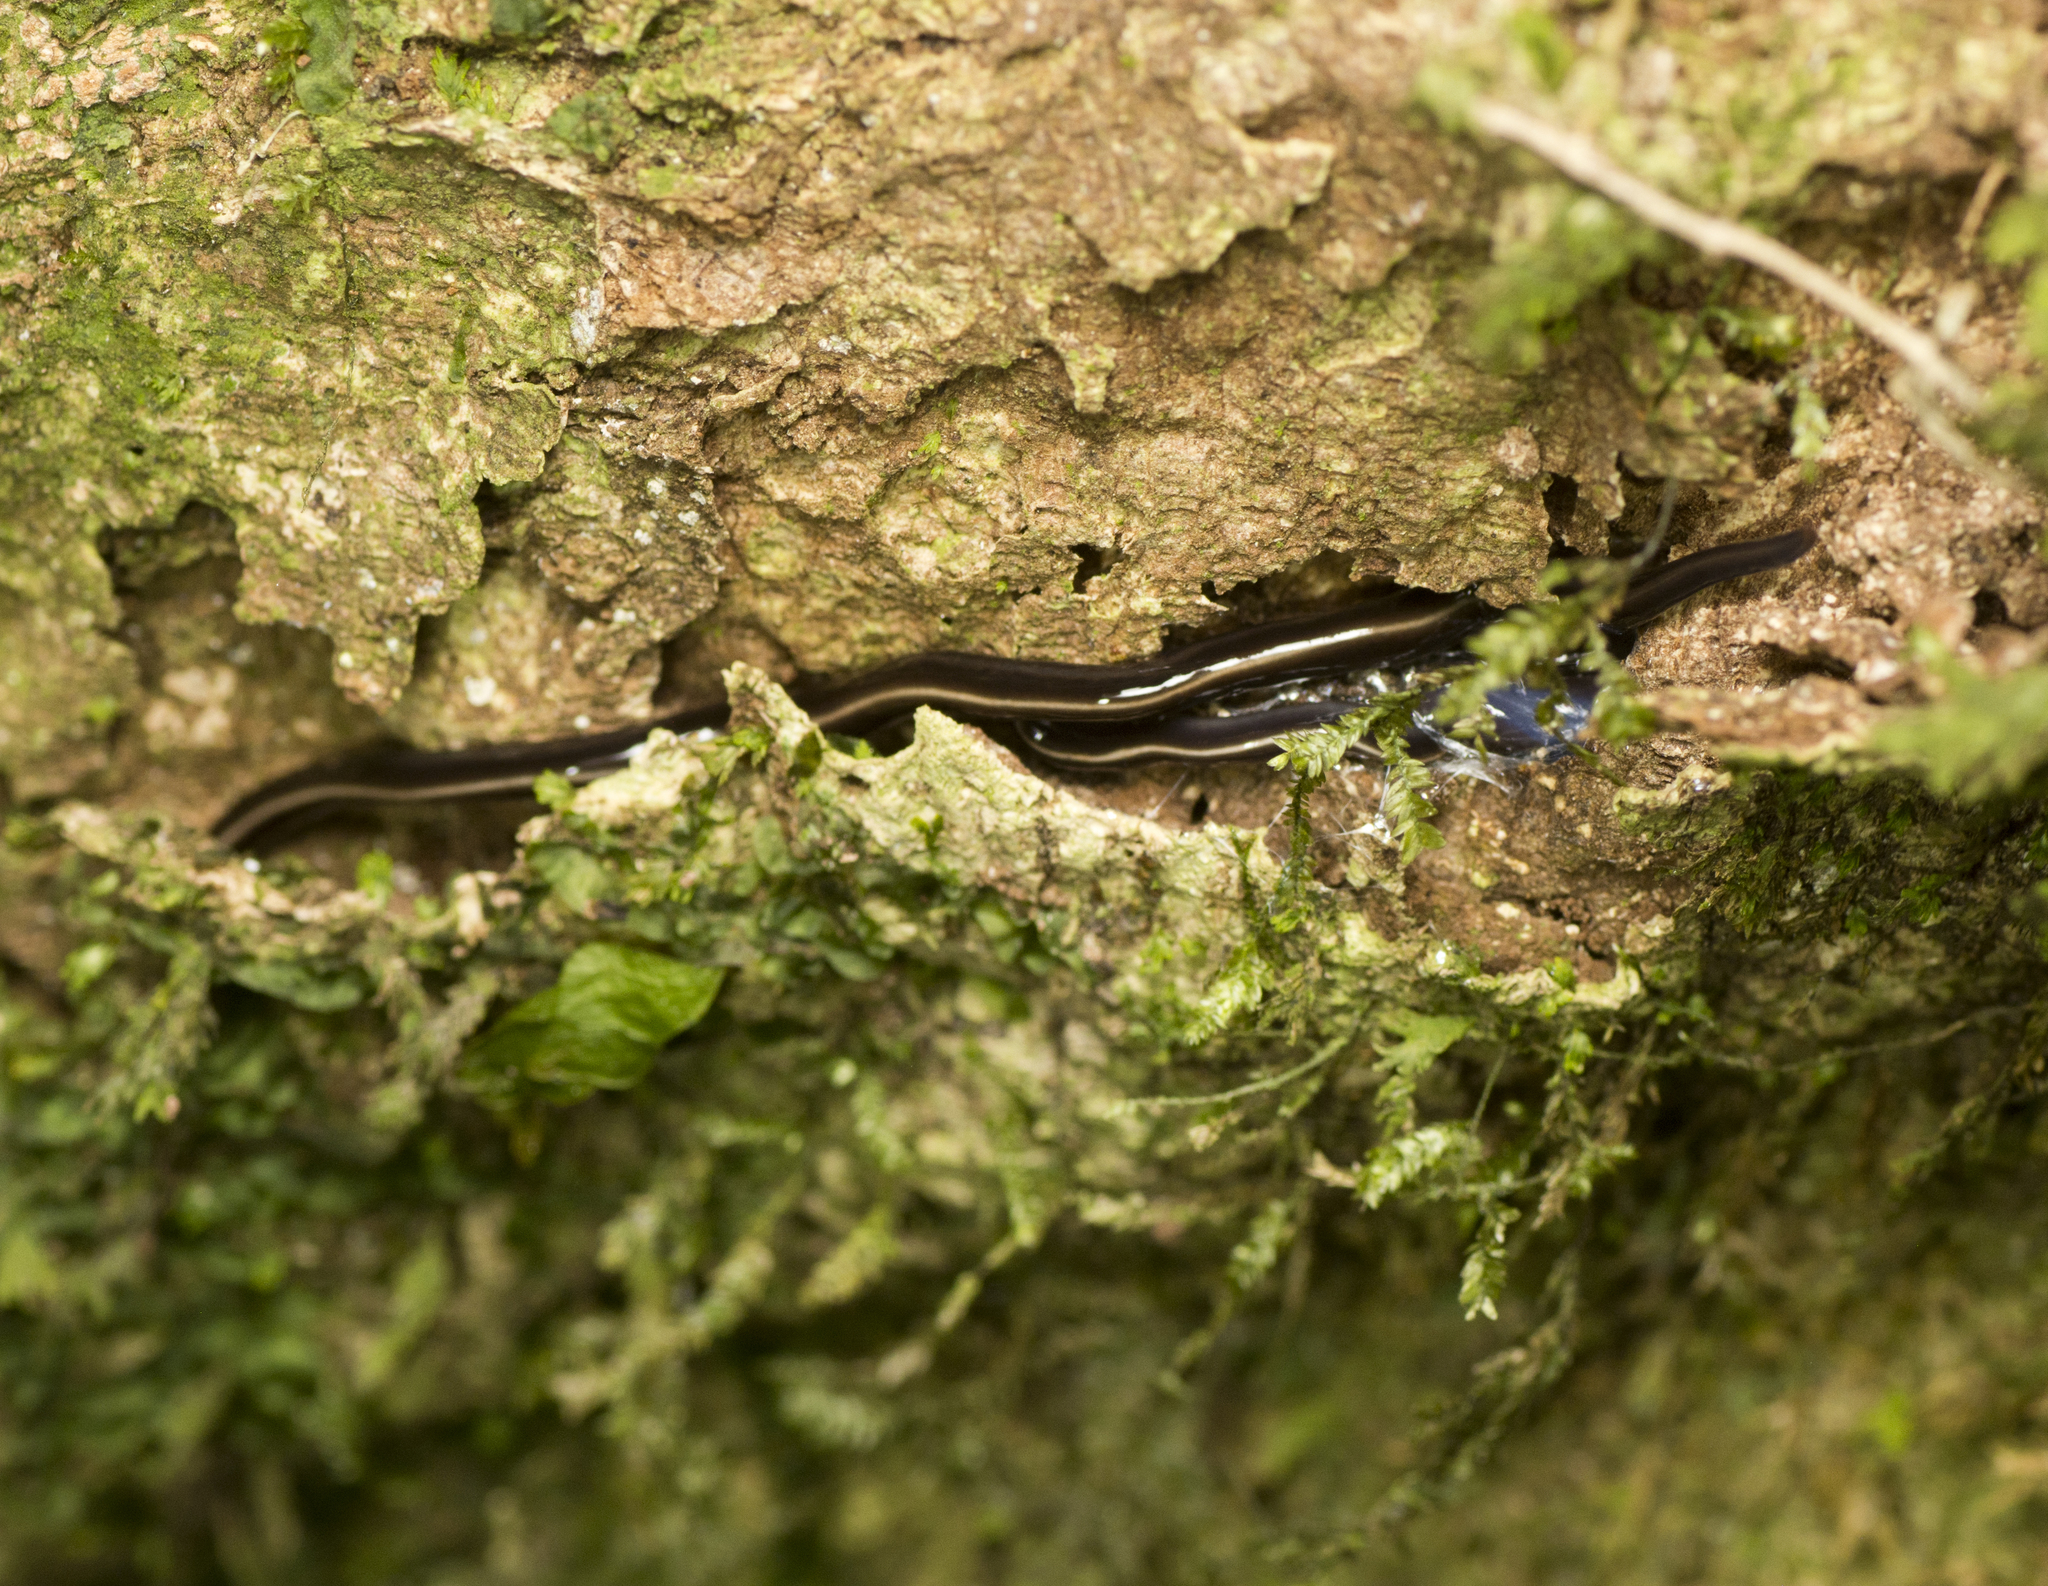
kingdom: Animalia
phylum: Platyhelminthes
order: Tricladida
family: Geoplanidae
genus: Caenoplana
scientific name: Caenoplana coerulea
